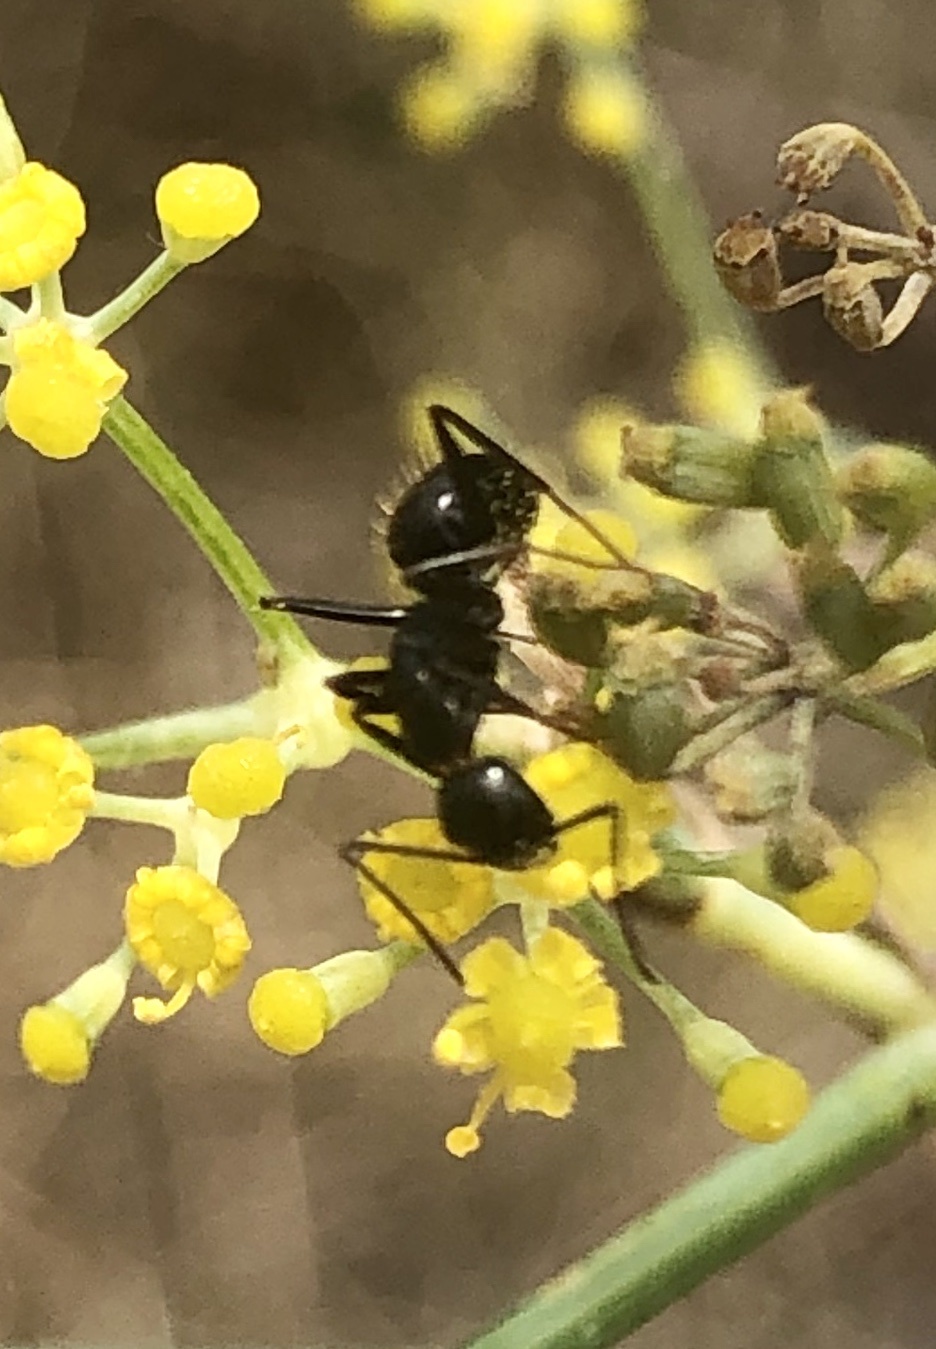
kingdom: Animalia
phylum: Arthropoda
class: Insecta
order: Hymenoptera
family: Formicidae
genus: Camponotus
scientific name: Camponotus aethiops
